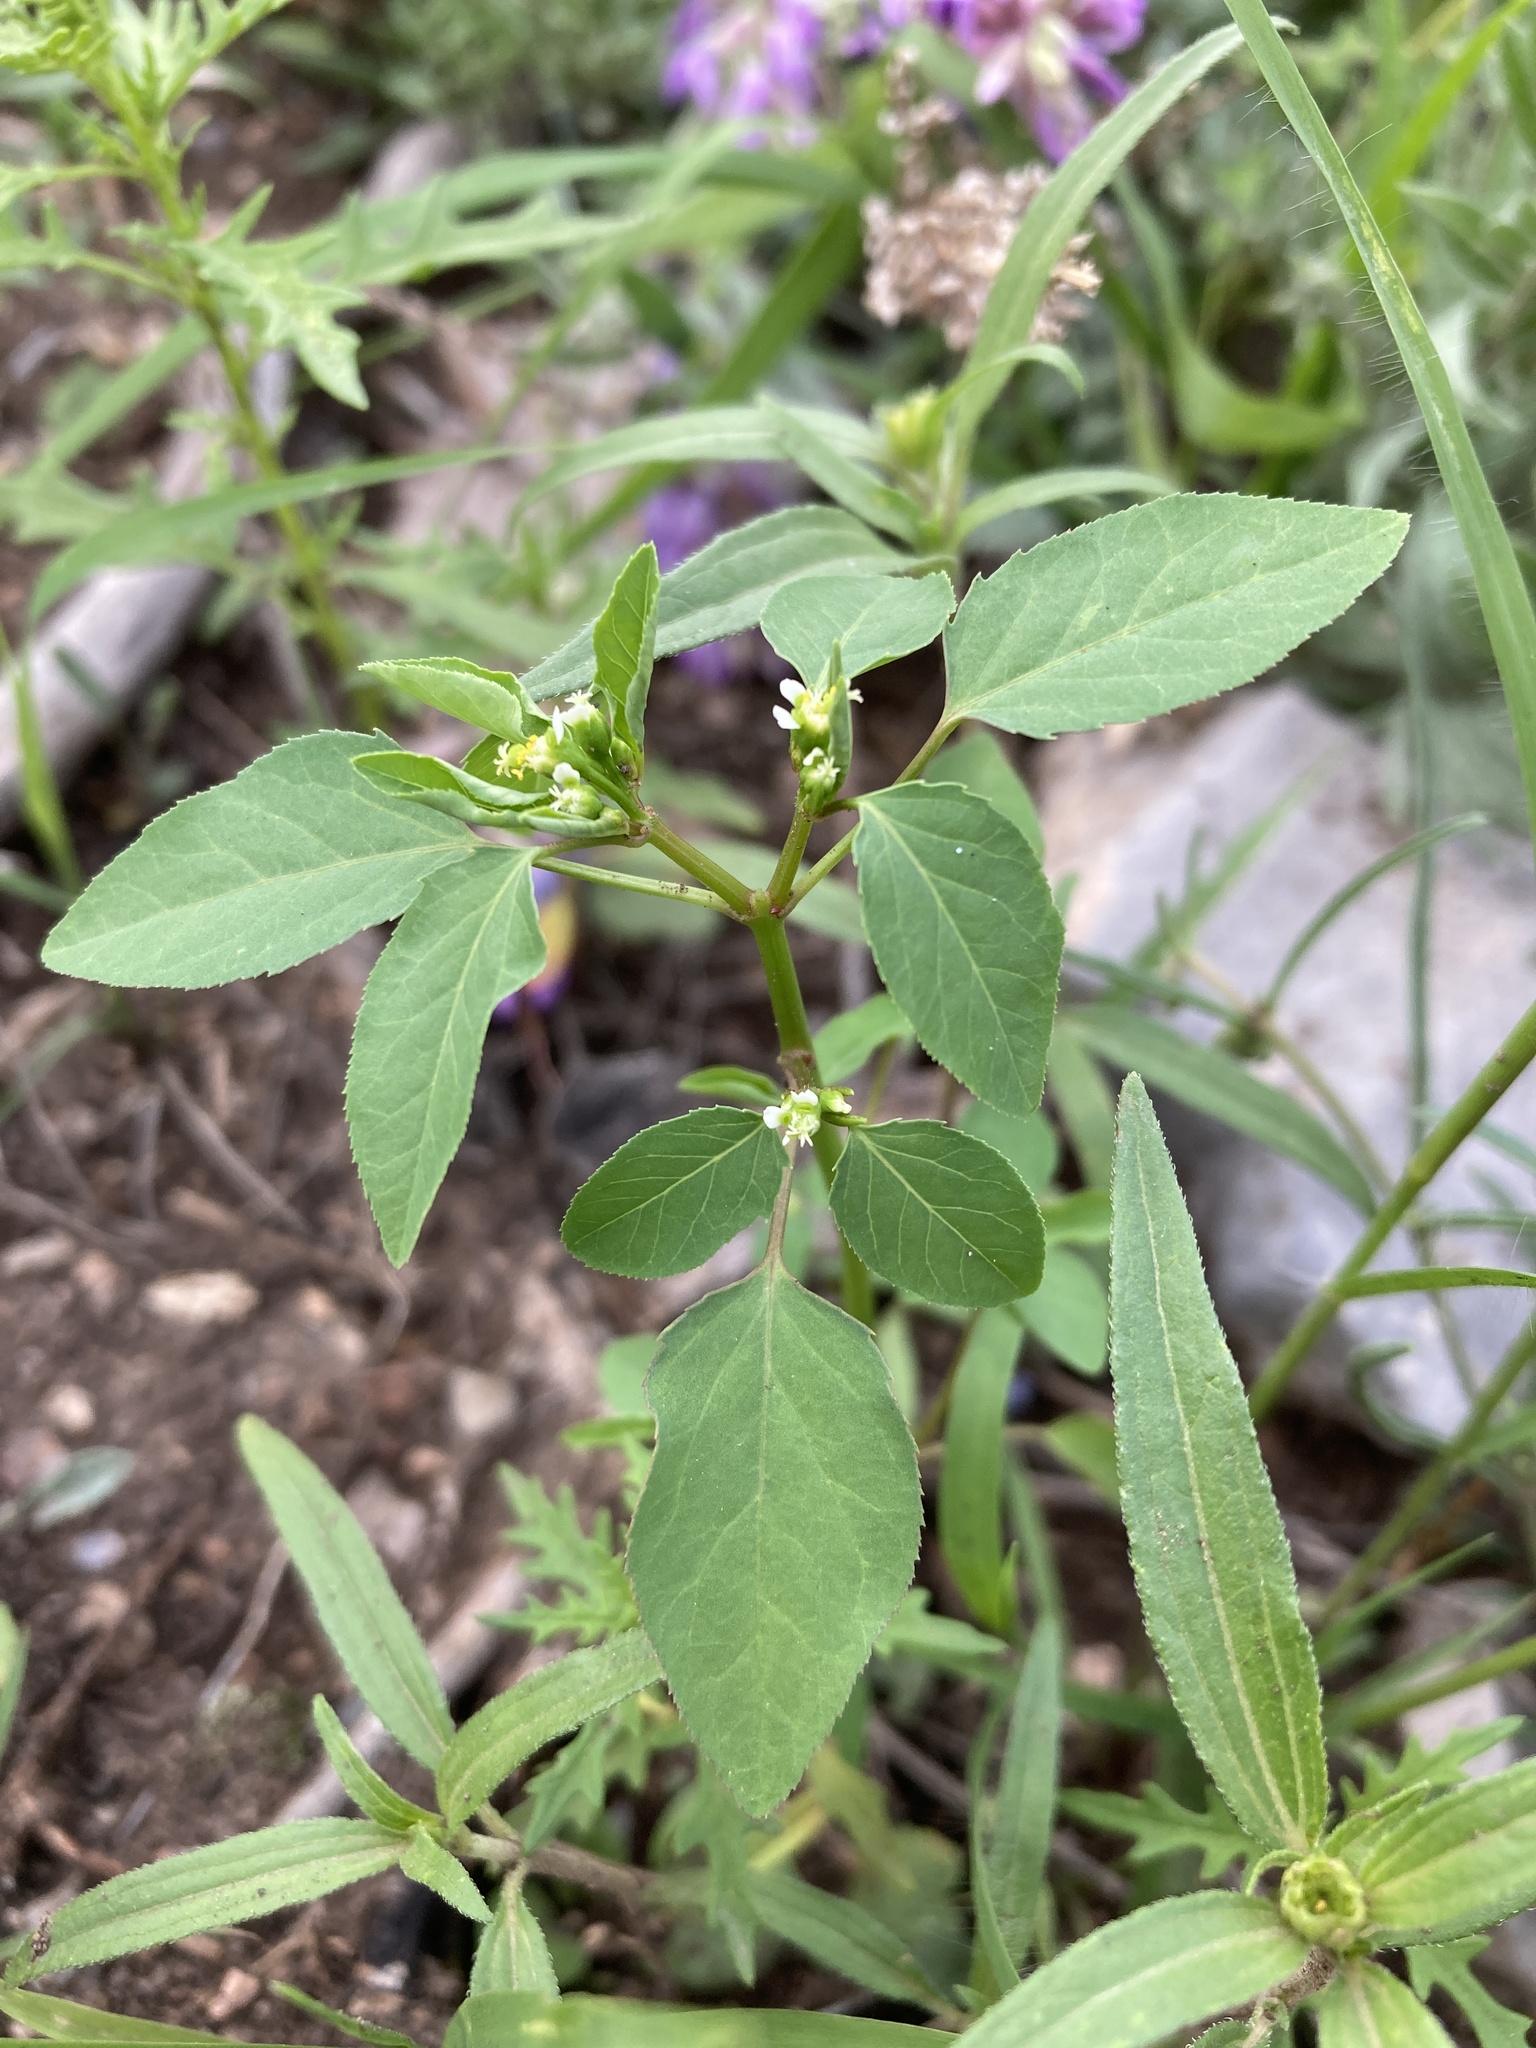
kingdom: Plantae
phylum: Tracheophyta
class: Magnoliopsida
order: Malpighiales
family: Euphorbiaceae
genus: Euphorbia
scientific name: Euphorbia bifurcata
